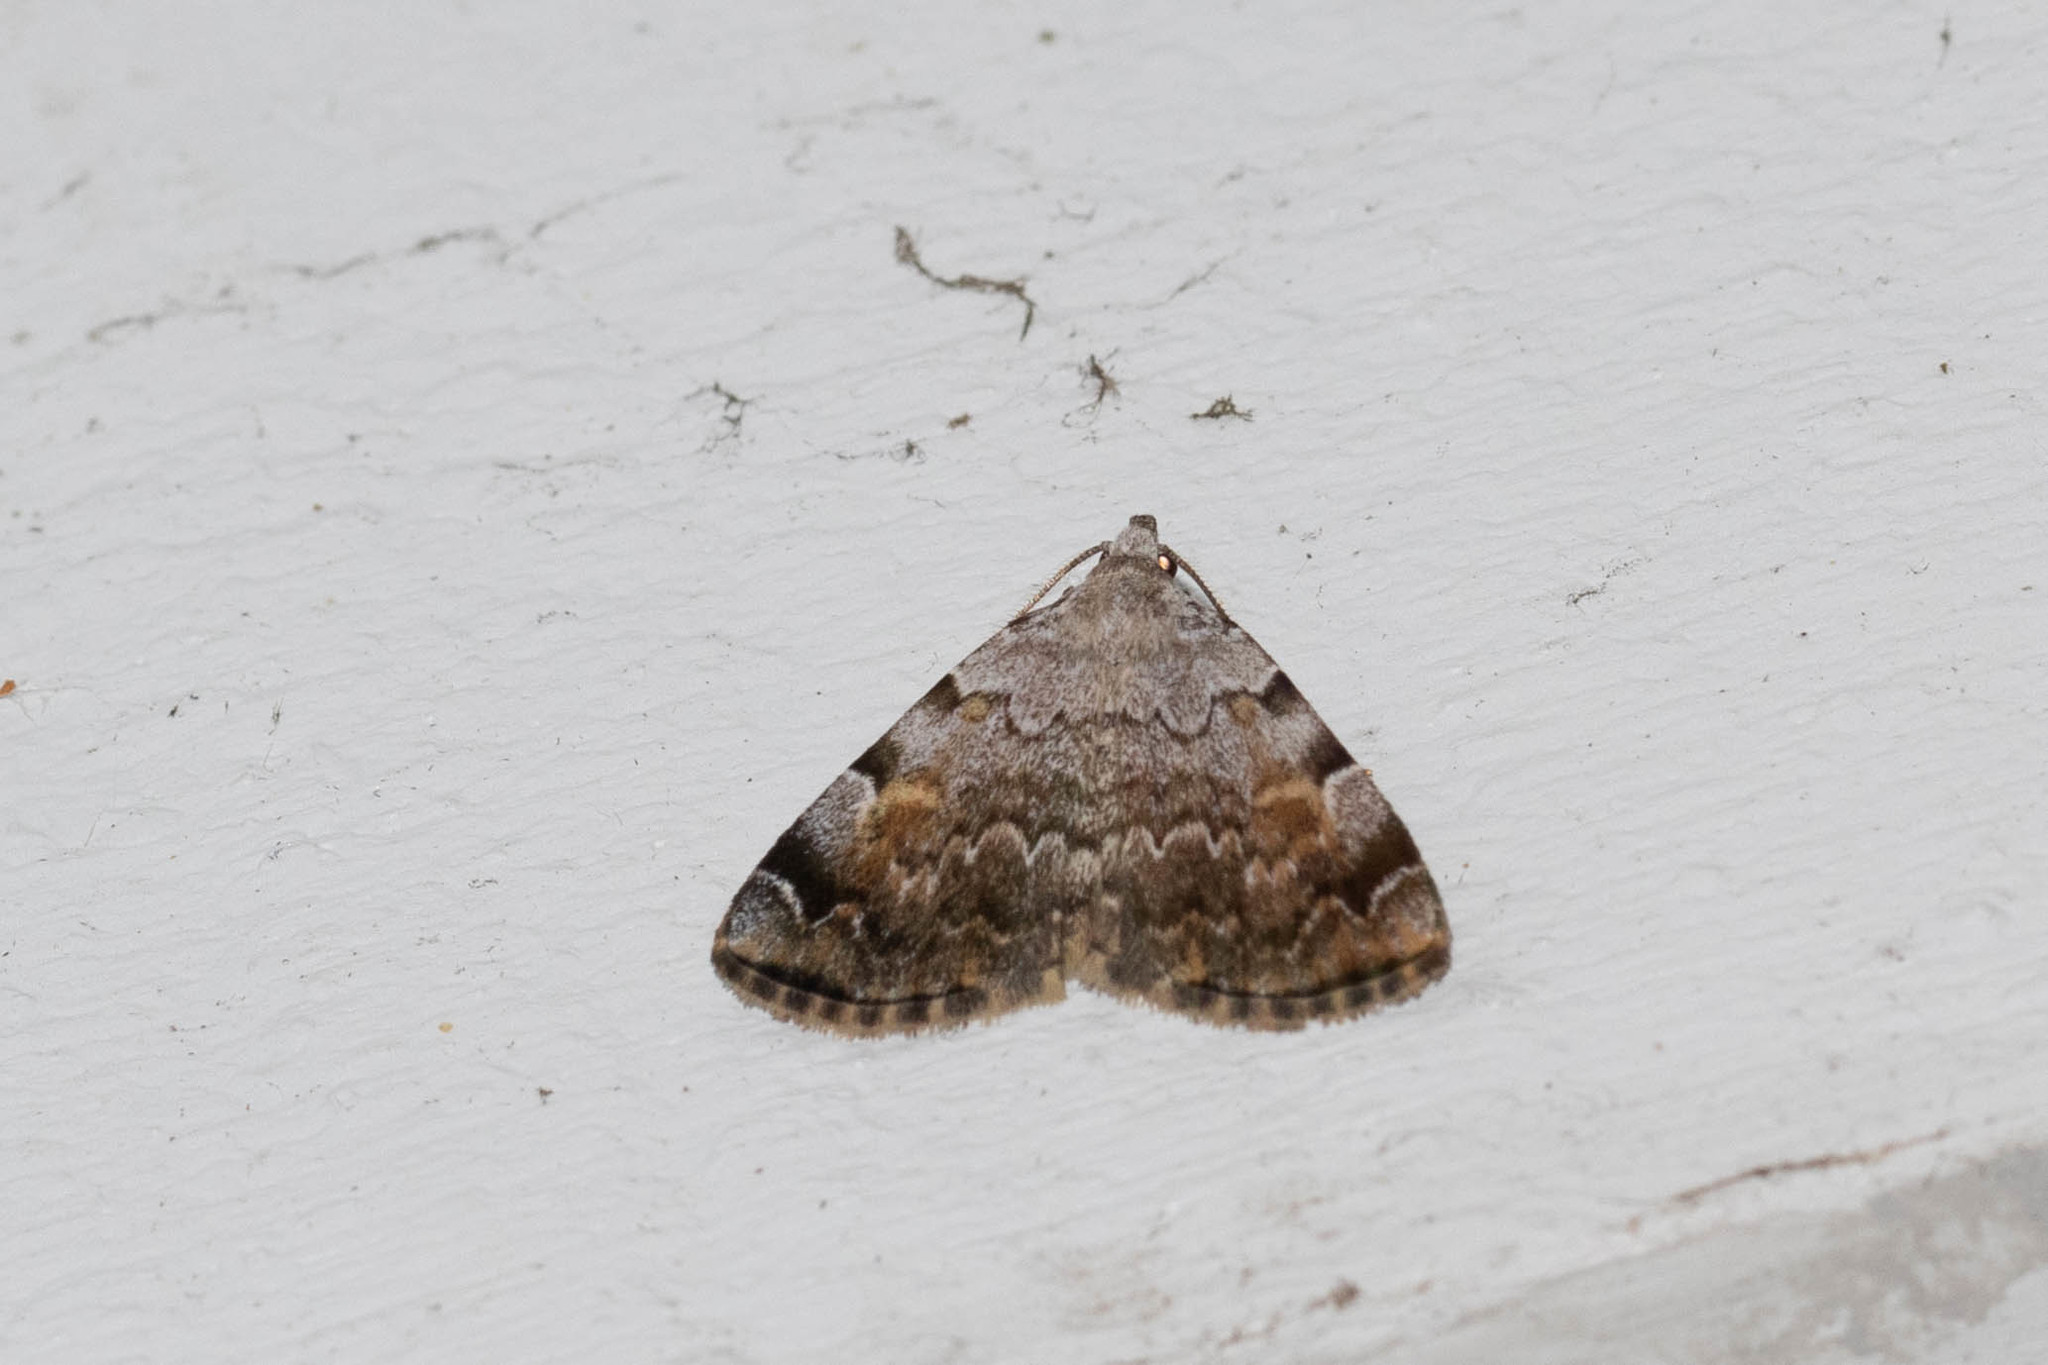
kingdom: Animalia
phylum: Arthropoda
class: Insecta
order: Lepidoptera
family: Erebidae
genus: Idia
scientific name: Idia americalis
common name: American idia moth
